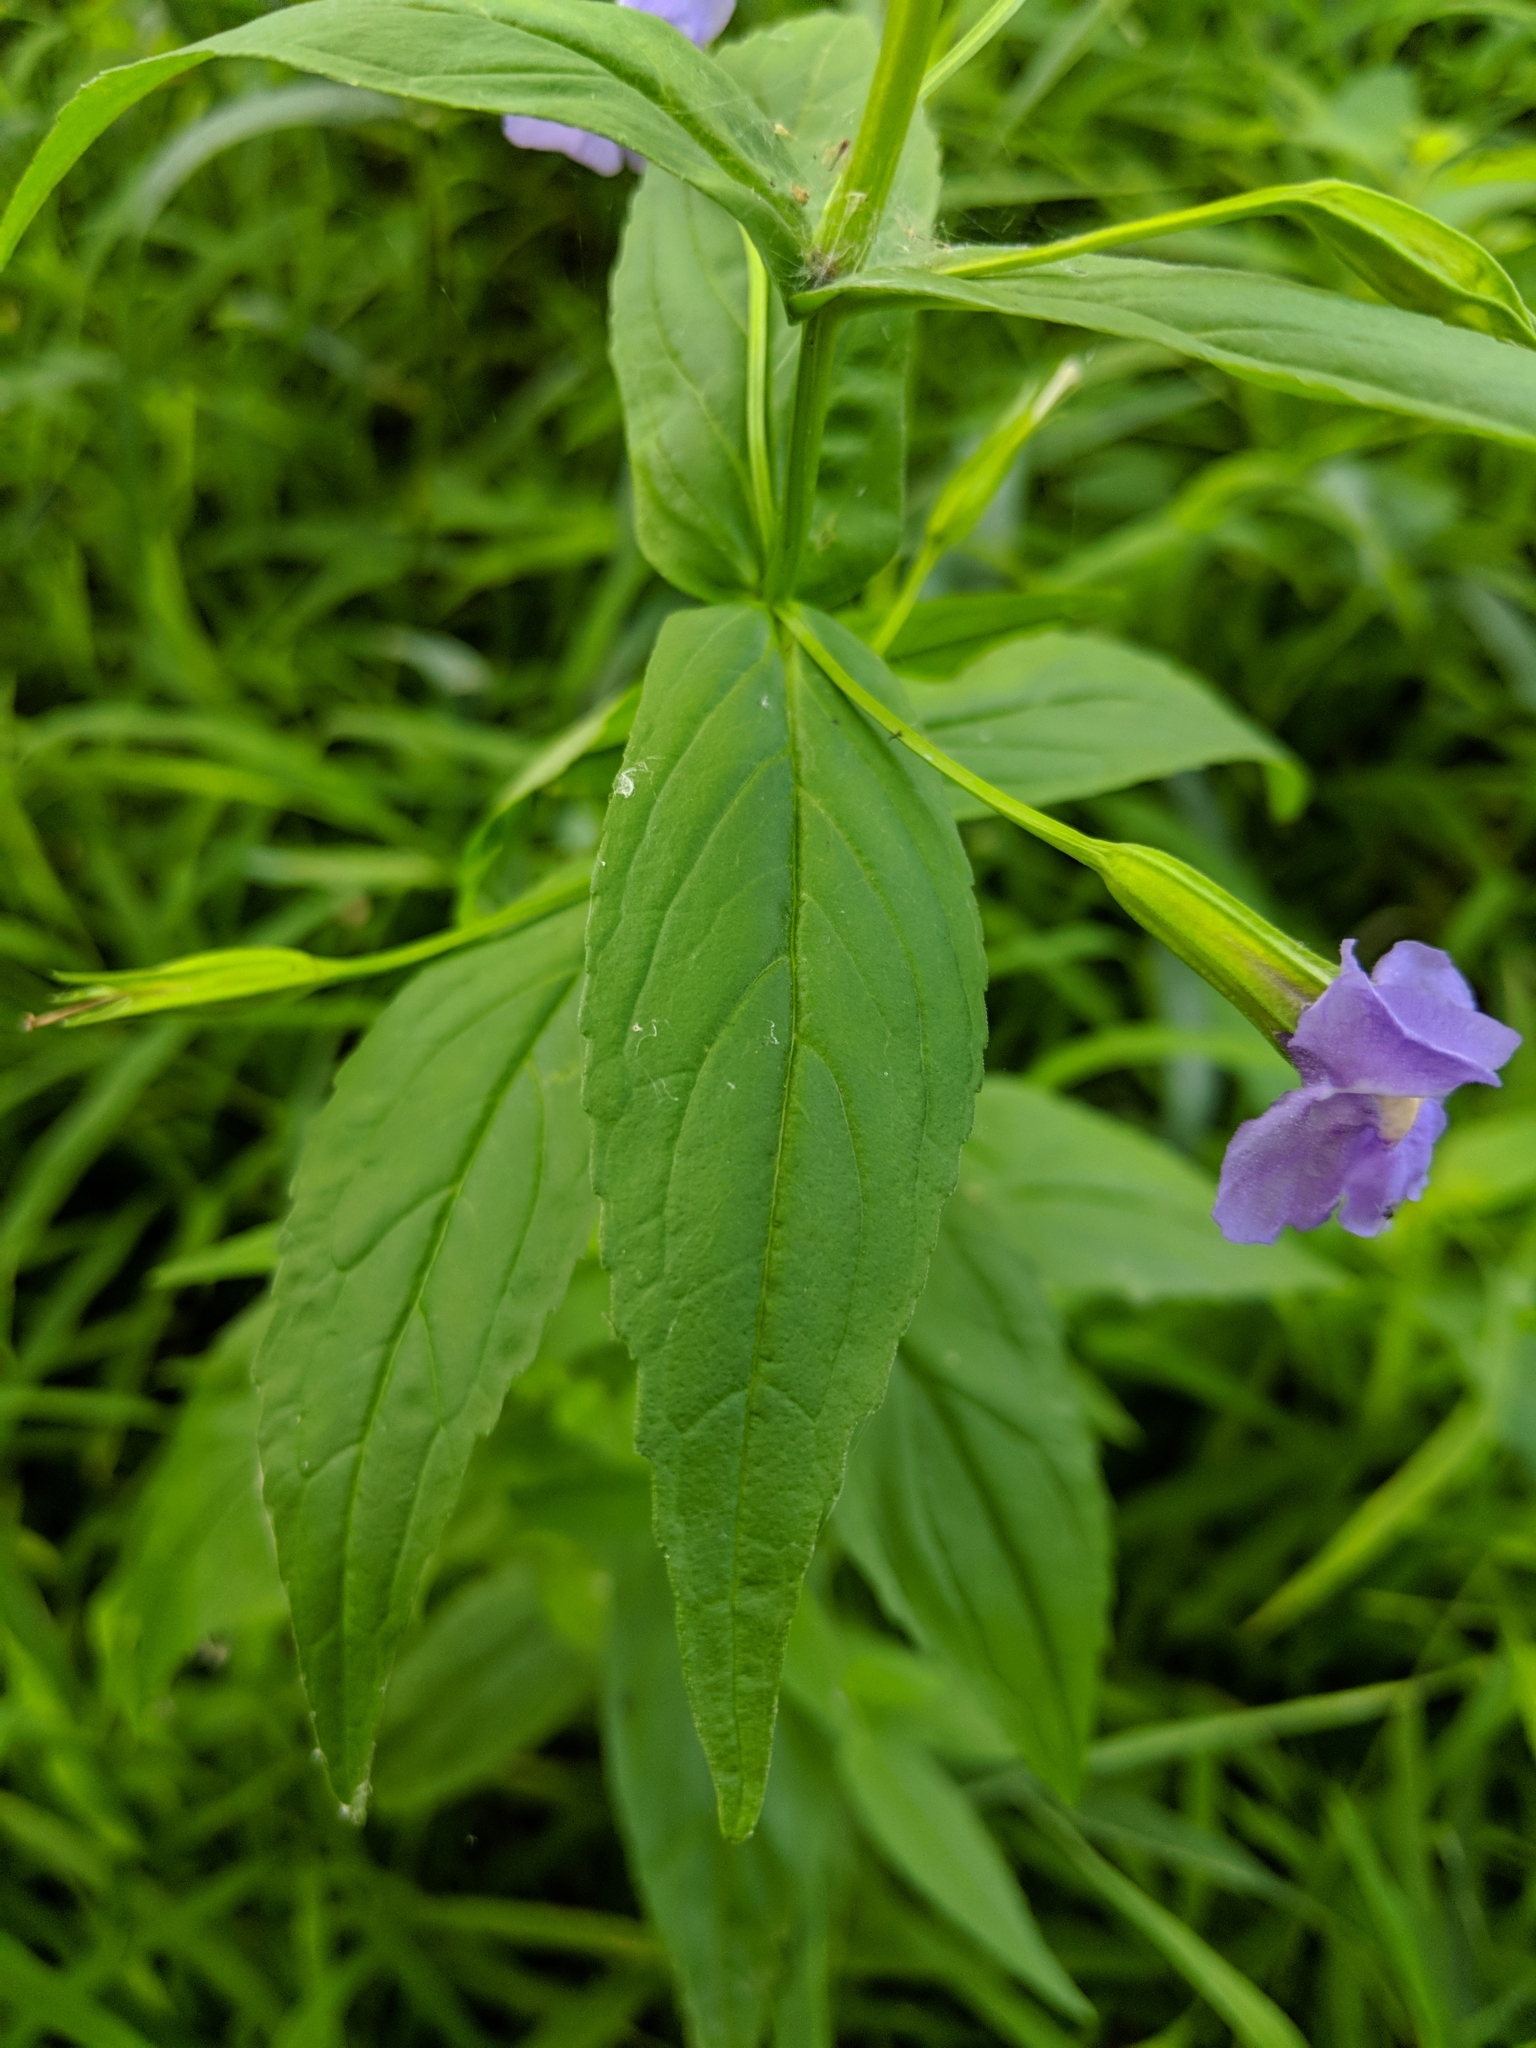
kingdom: Plantae
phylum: Tracheophyta
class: Magnoliopsida
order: Lamiales
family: Phrymaceae
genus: Mimulus
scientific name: Mimulus ringens
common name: Allegheny monkeyflower
